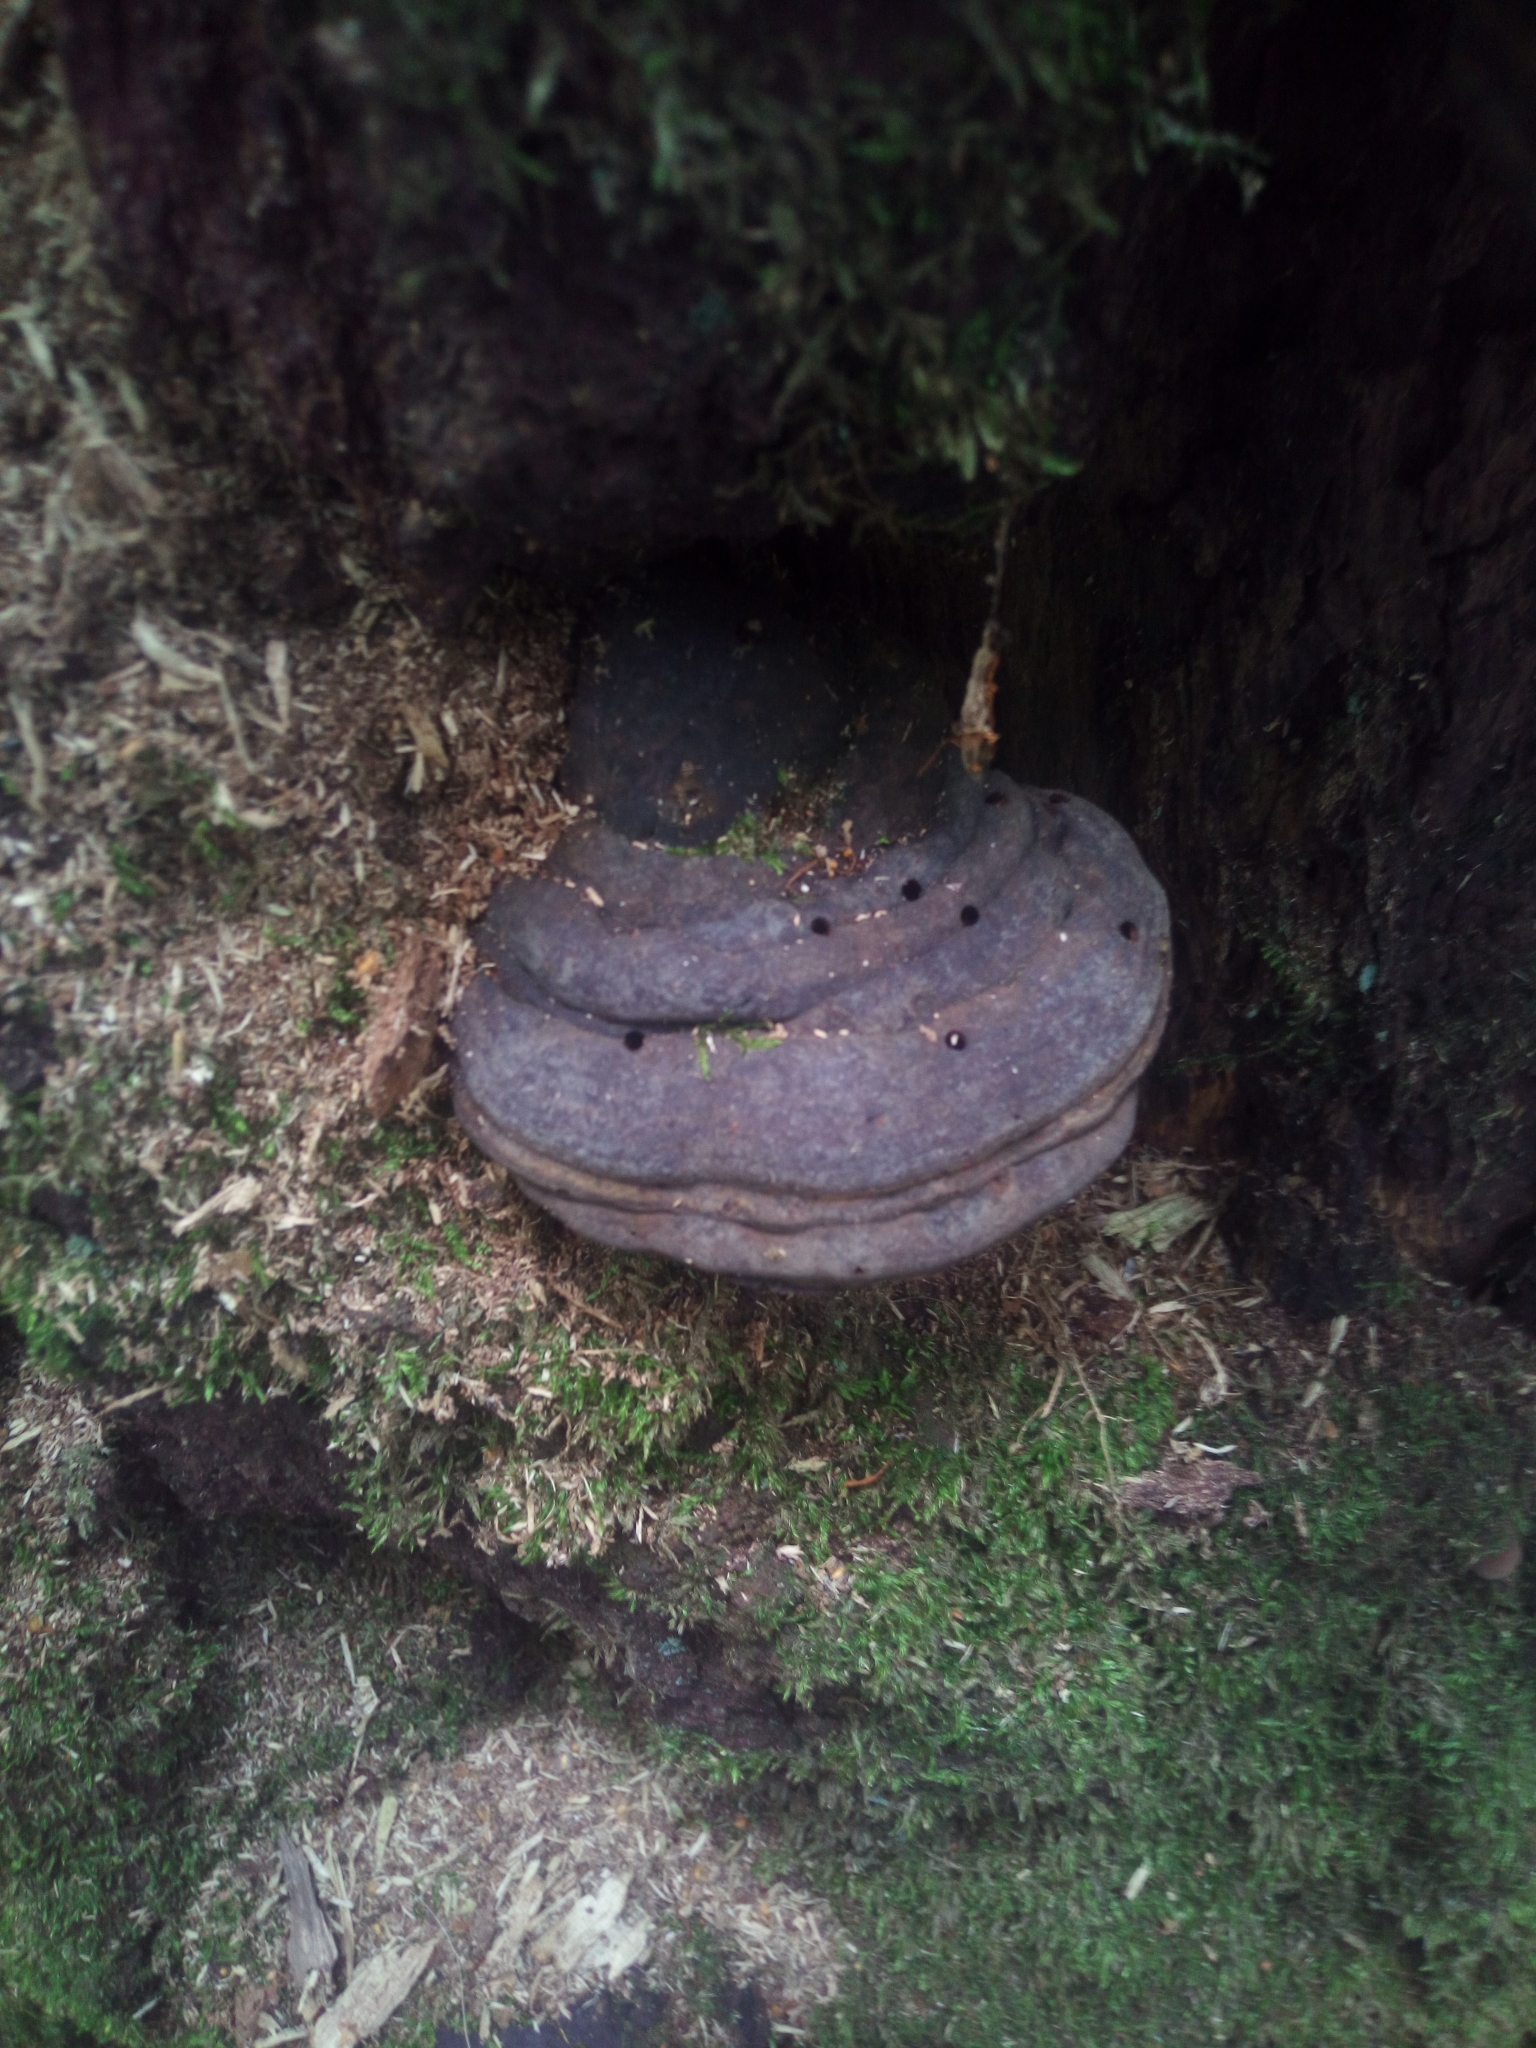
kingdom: Fungi
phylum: Basidiomycota
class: Agaricomycetes
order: Polyporales
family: Polyporaceae
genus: Fomes
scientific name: Fomes fomentarius
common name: Hoof fungus
